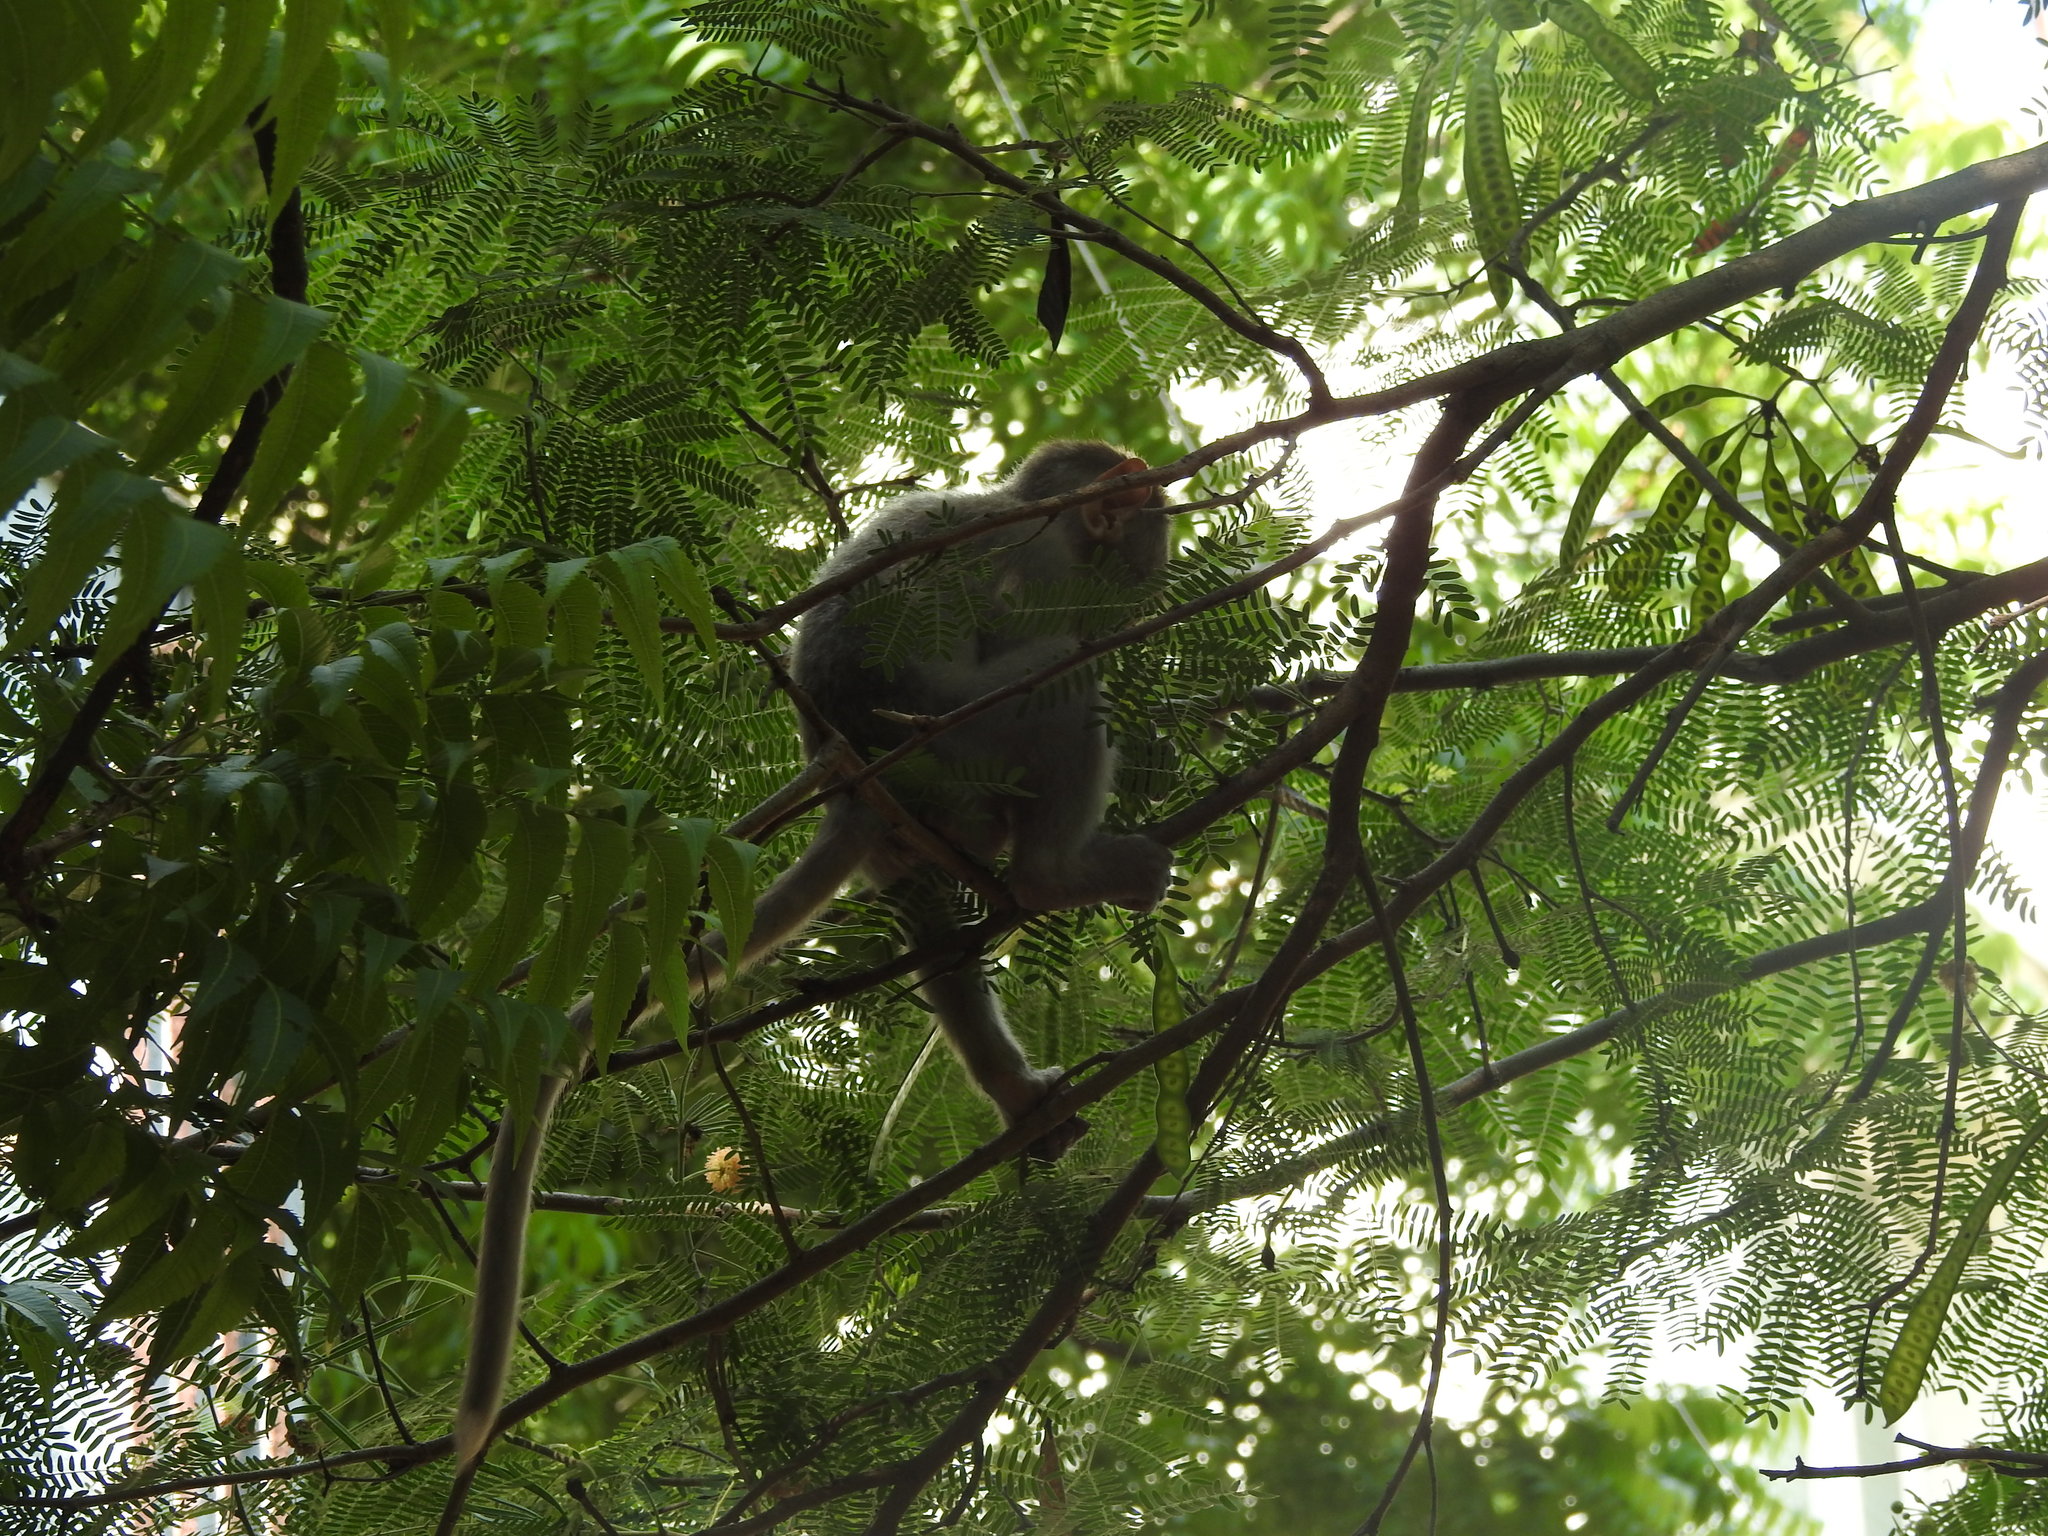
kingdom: Animalia
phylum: Chordata
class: Mammalia
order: Primates
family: Cercopithecidae
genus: Macaca
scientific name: Macaca radiata
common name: Bonnet macaque
